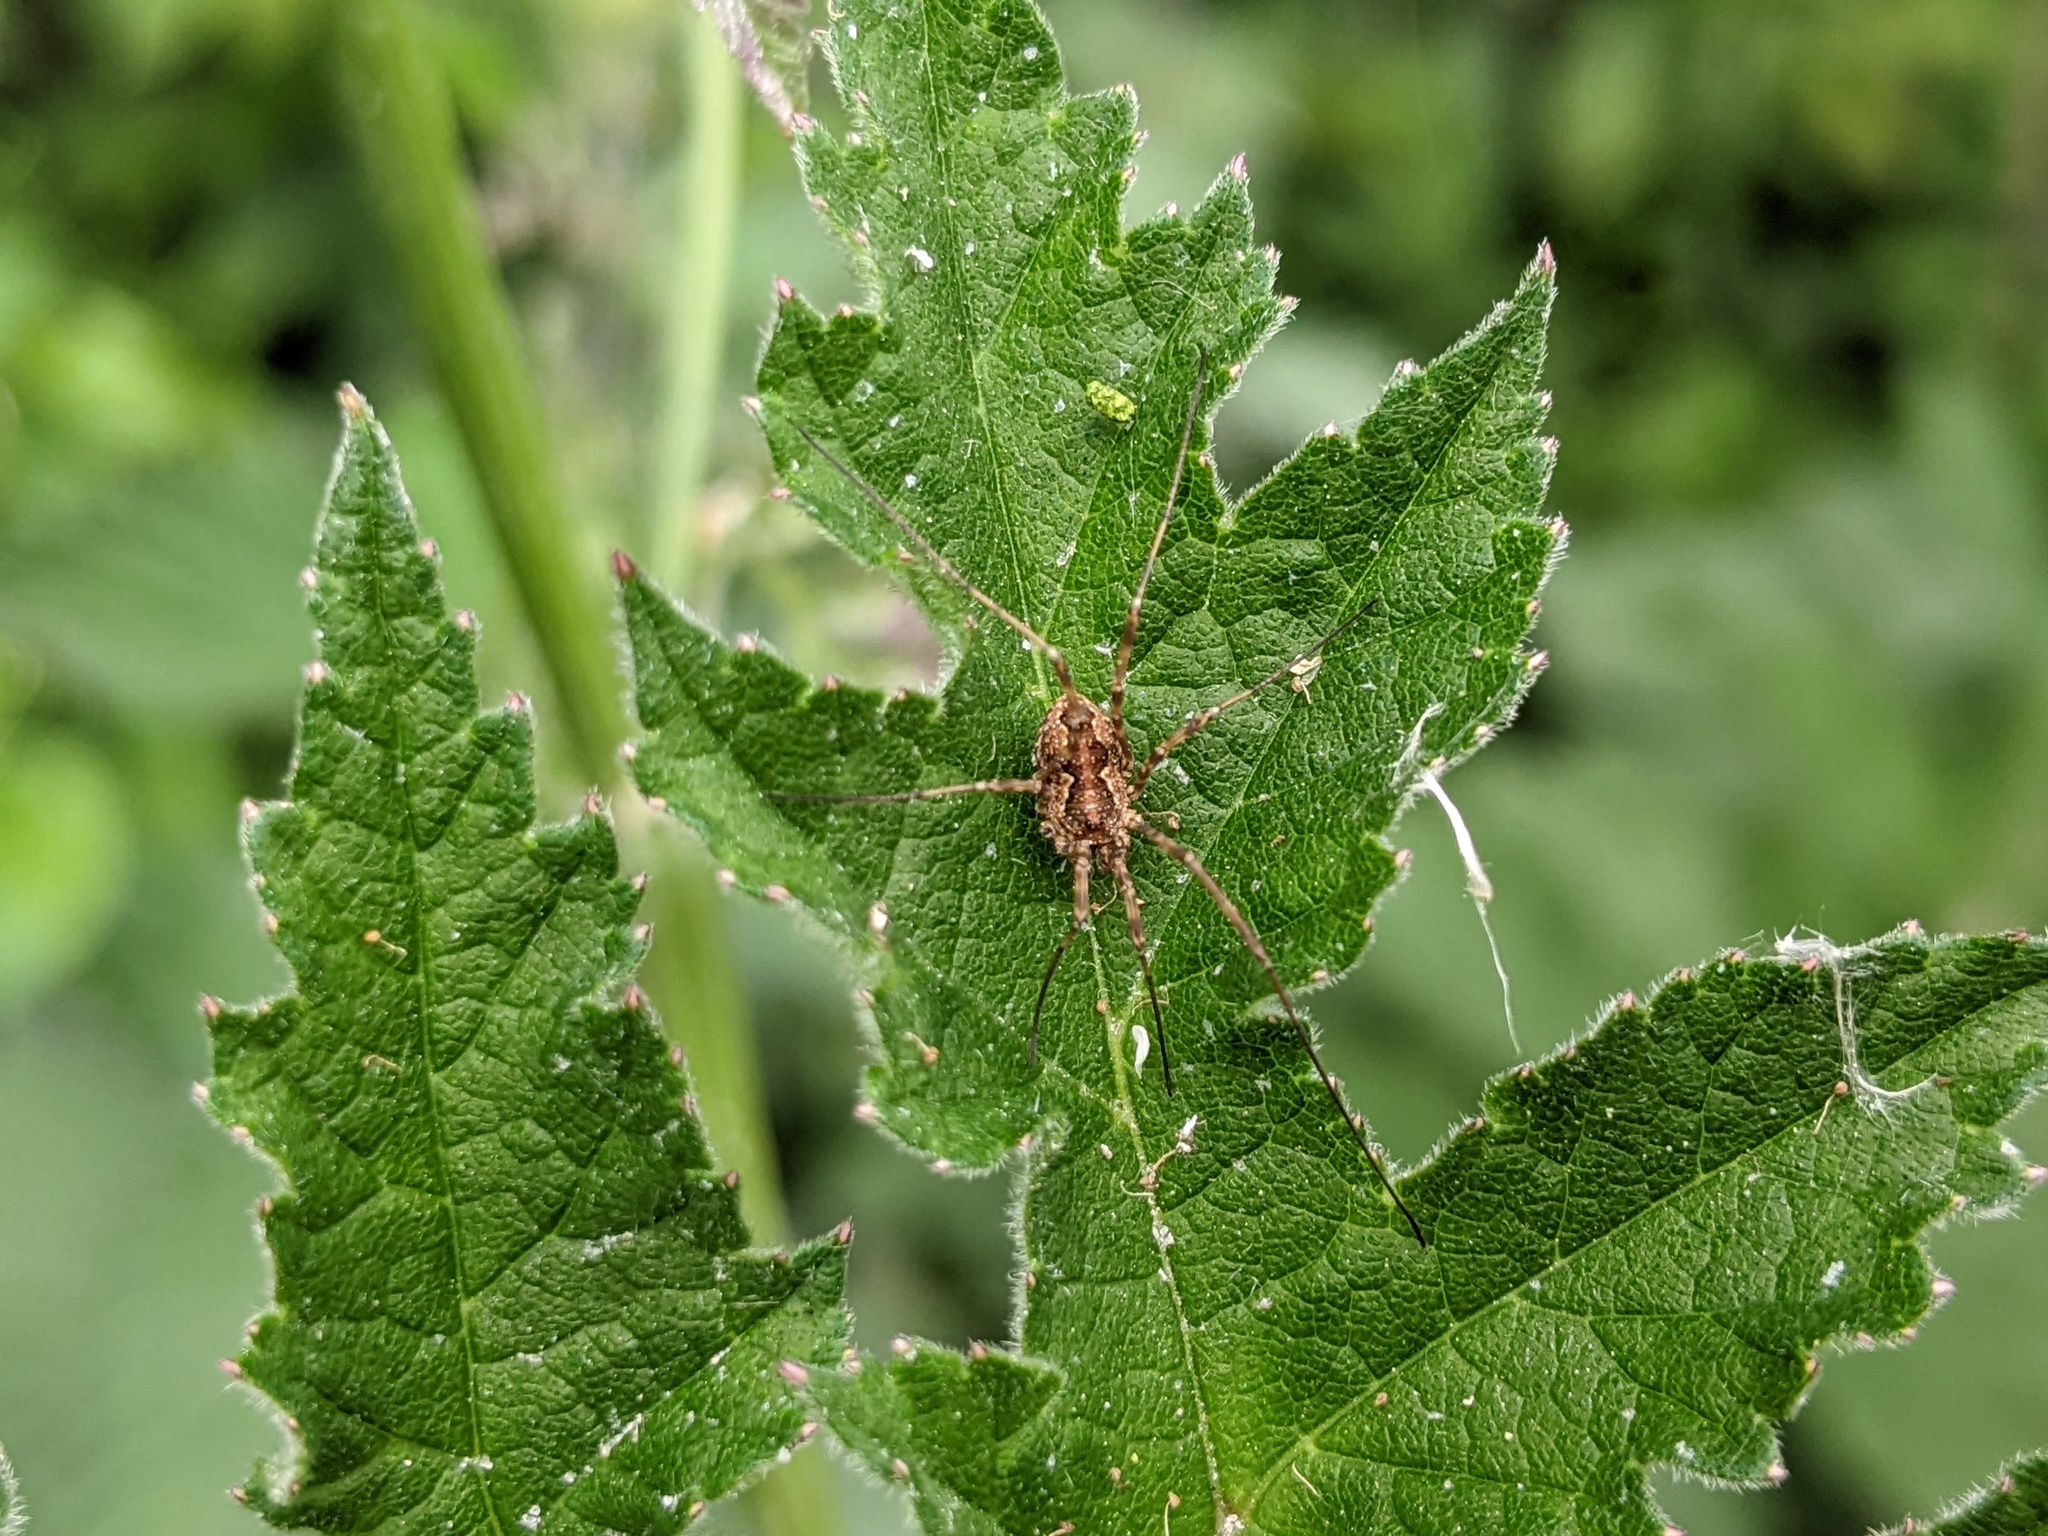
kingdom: Animalia
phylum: Arthropoda
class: Arachnida
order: Opiliones
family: Phalangiidae
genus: Mitopus
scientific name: Mitopus morio
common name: Saddleback harvestman
